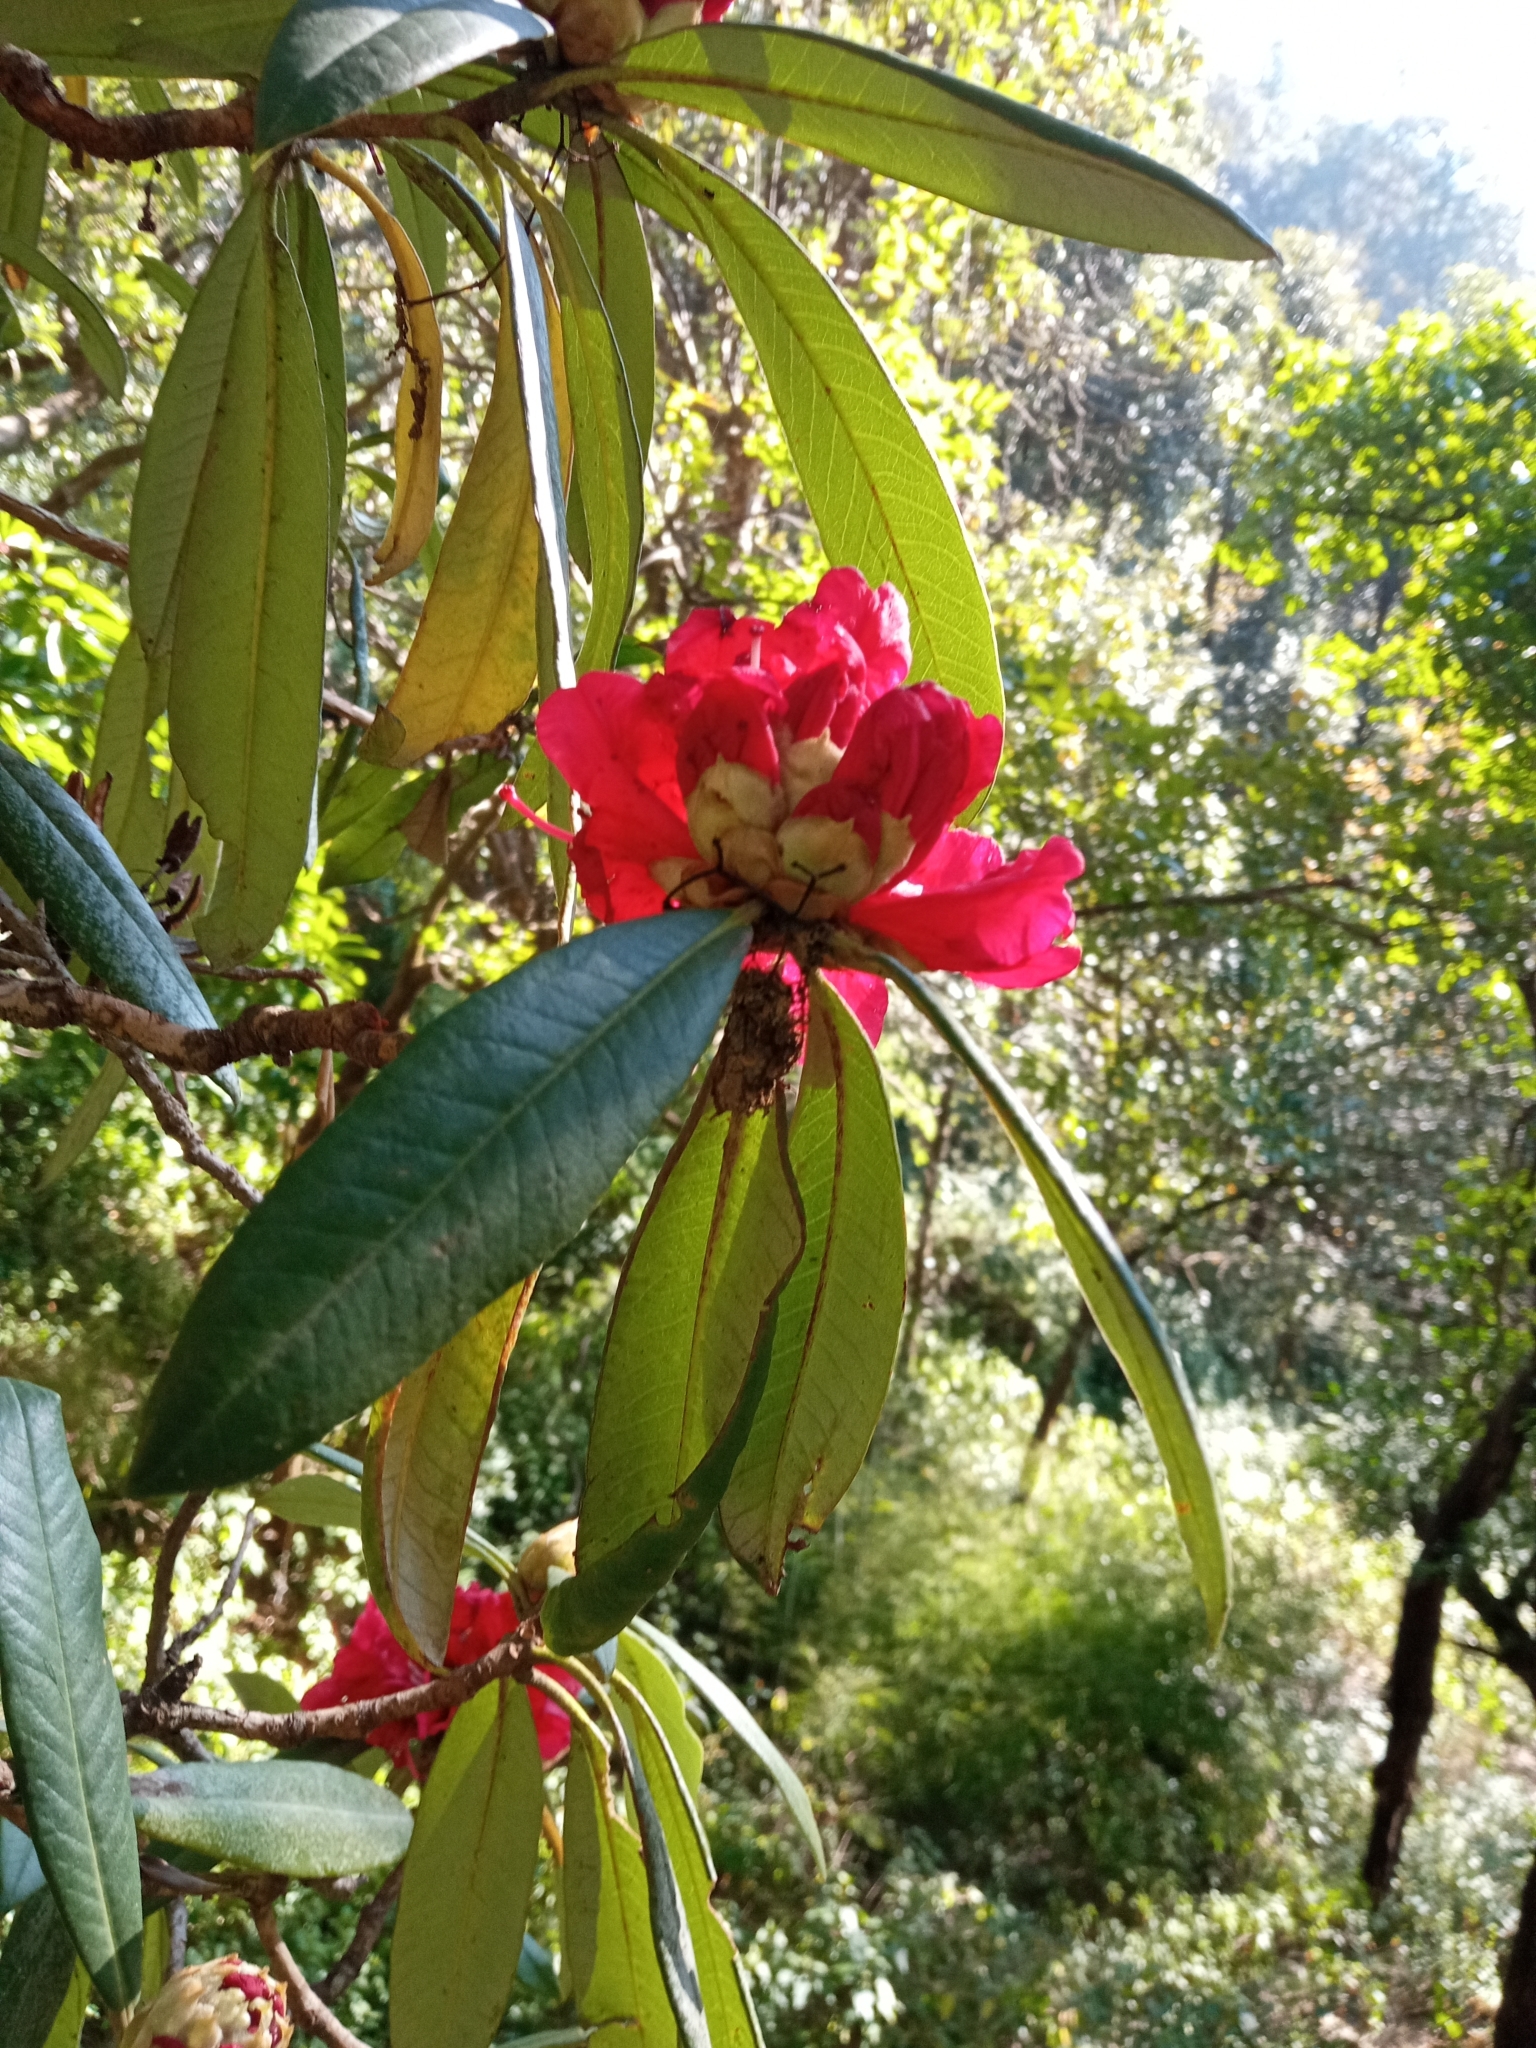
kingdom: Plantae
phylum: Tracheophyta
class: Magnoliopsida
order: Ericales
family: Ericaceae
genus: Rhododendron
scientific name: Rhododendron arboreum
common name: Tree rhododendron
